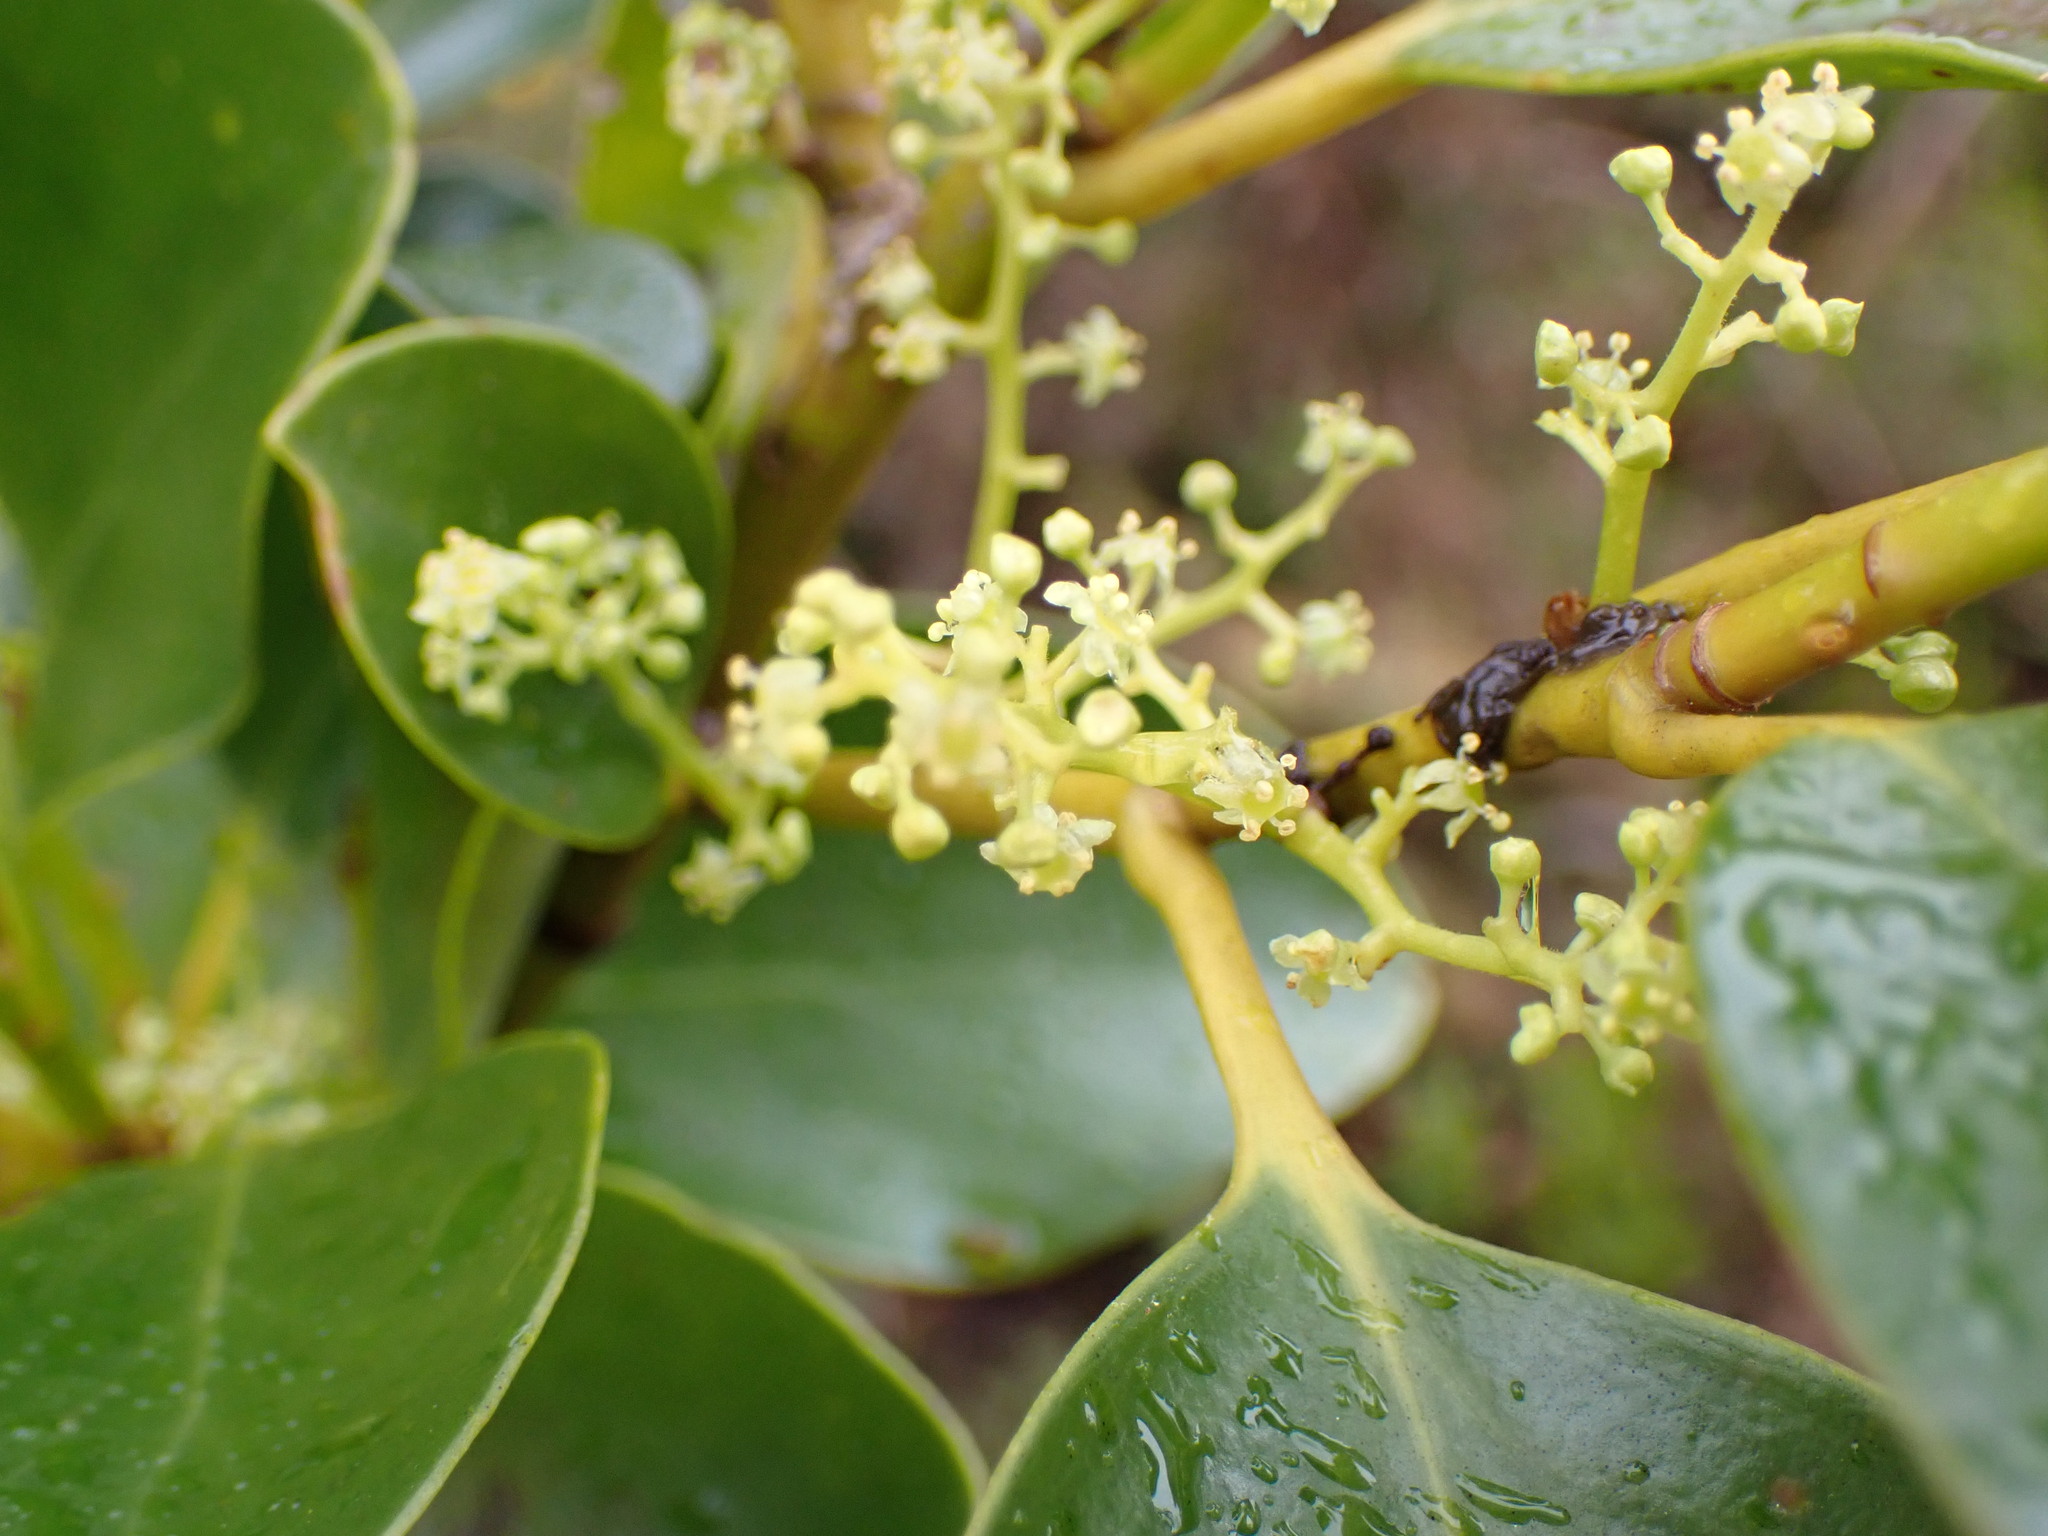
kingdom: Plantae
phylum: Tracheophyta
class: Magnoliopsida
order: Apiales
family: Griseliniaceae
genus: Griselinia
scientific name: Griselinia littoralis
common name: New zealand broadleaf
